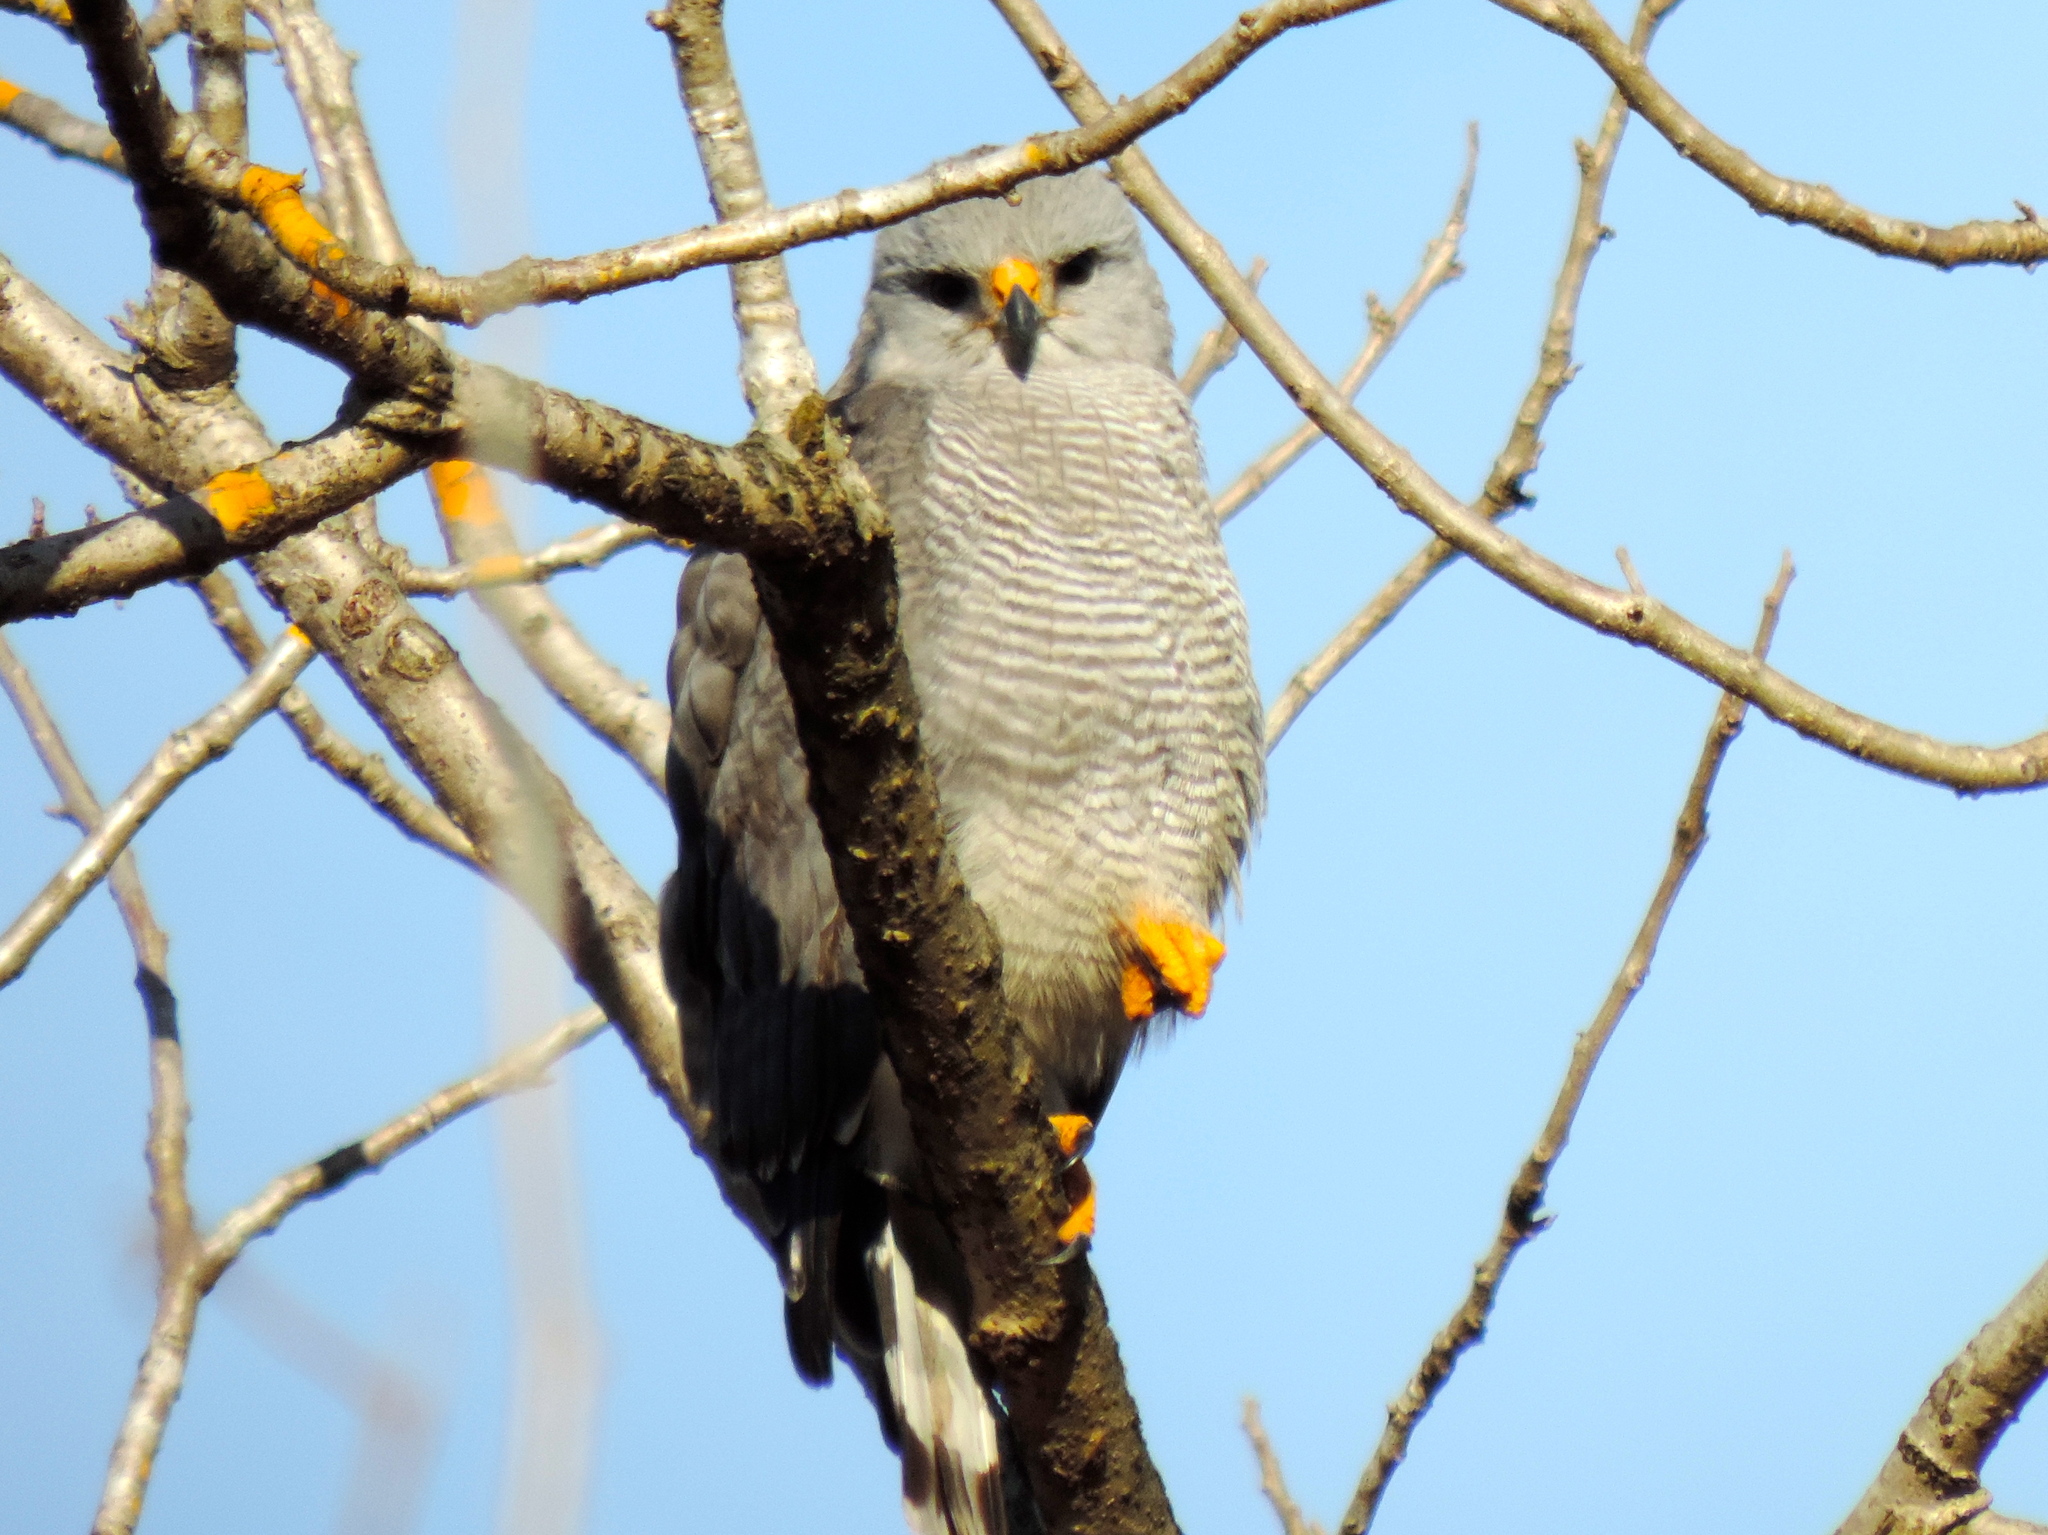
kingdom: Animalia
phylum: Chordata
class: Aves
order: Accipitriformes
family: Accipitridae
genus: Buteo
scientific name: Buteo nitidus
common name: Grey-lined hawk
